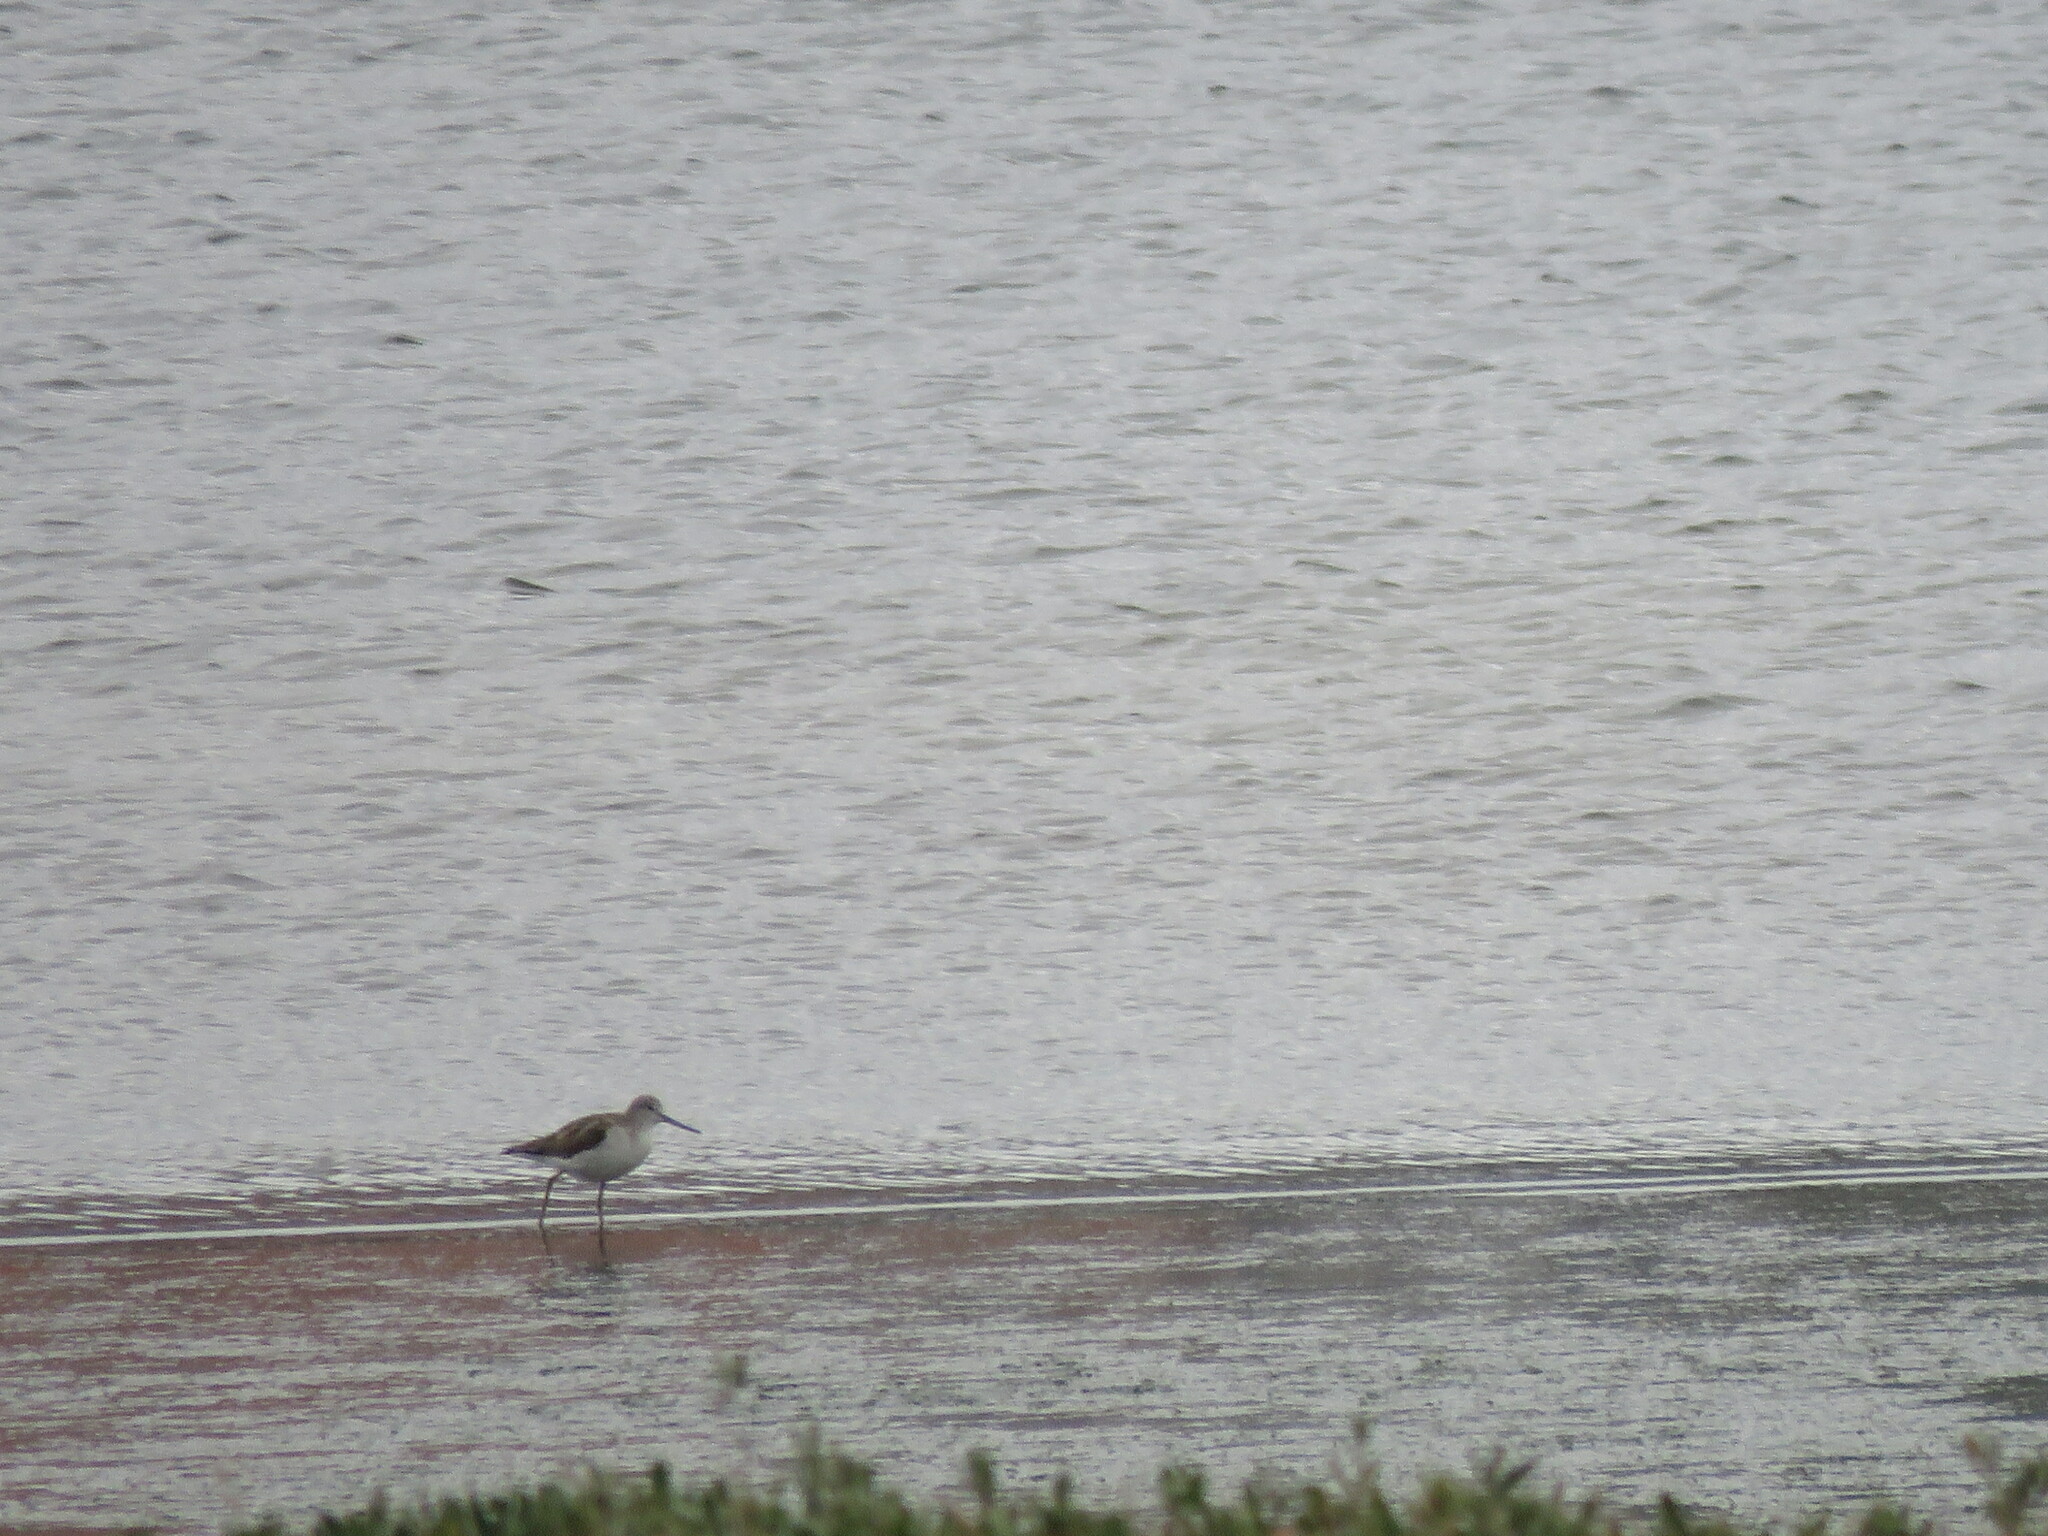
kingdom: Animalia
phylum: Chordata
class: Aves
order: Charadriiformes
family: Scolopacidae
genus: Tringa
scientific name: Tringa nebularia
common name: Common greenshank
